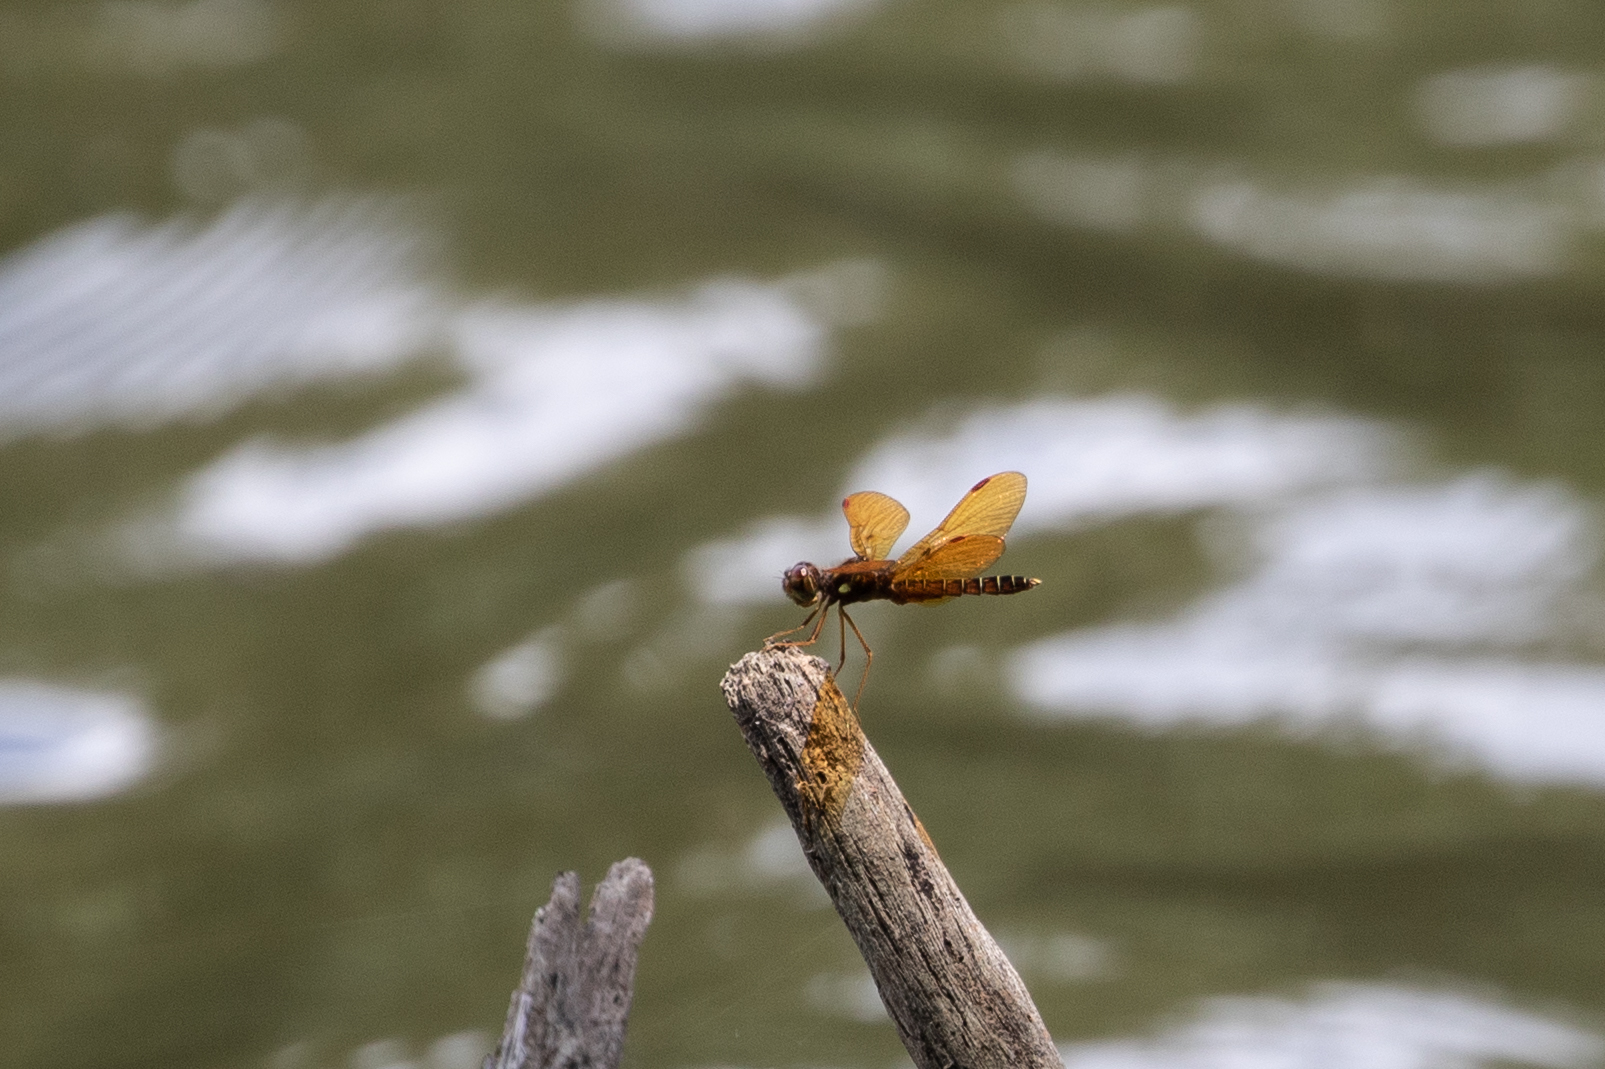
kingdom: Animalia
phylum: Arthropoda
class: Insecta
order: Odonata
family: Libellulidae
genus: Perithemis
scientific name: Perithemis tenera
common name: Eastern amberwing
